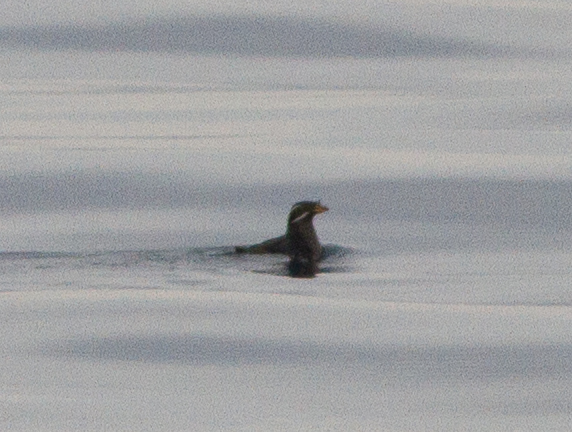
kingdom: Animalia
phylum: Chordata
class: Aves
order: Charadriiformes
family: Alcidae
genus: Cerorhinca
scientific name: Cerorhinca monocerata
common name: Rhinoceros auklet
